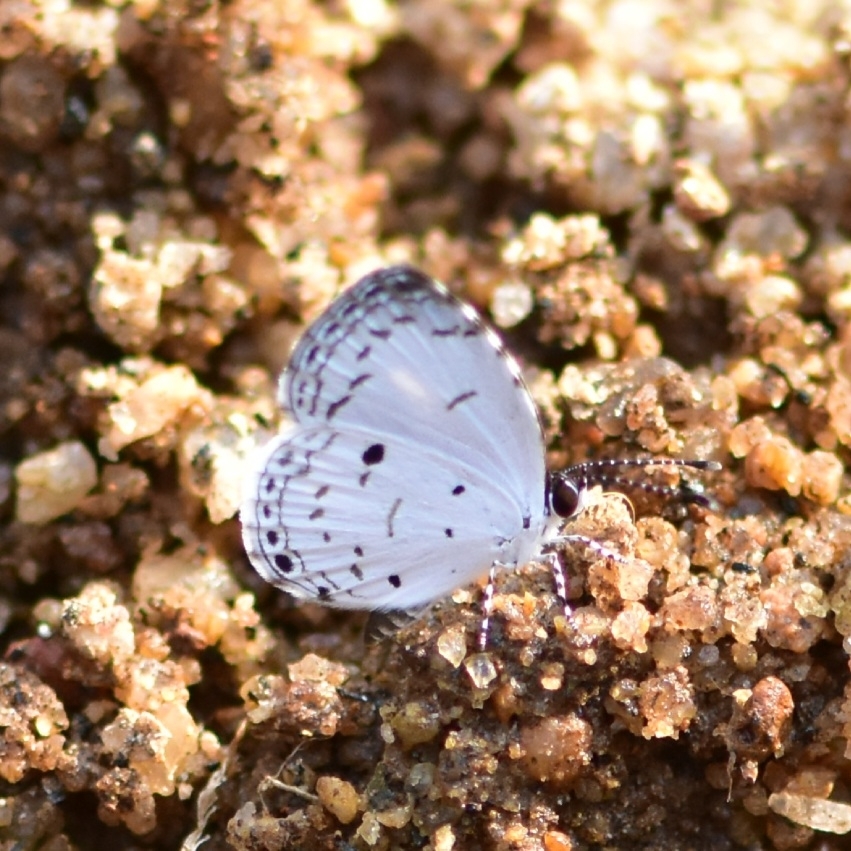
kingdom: Animalia
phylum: Arthropoda
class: Insecta
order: Lepidoptera
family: Lycaenidae
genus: Neopithecops
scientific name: Neopithecops zalmora
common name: Quaker
